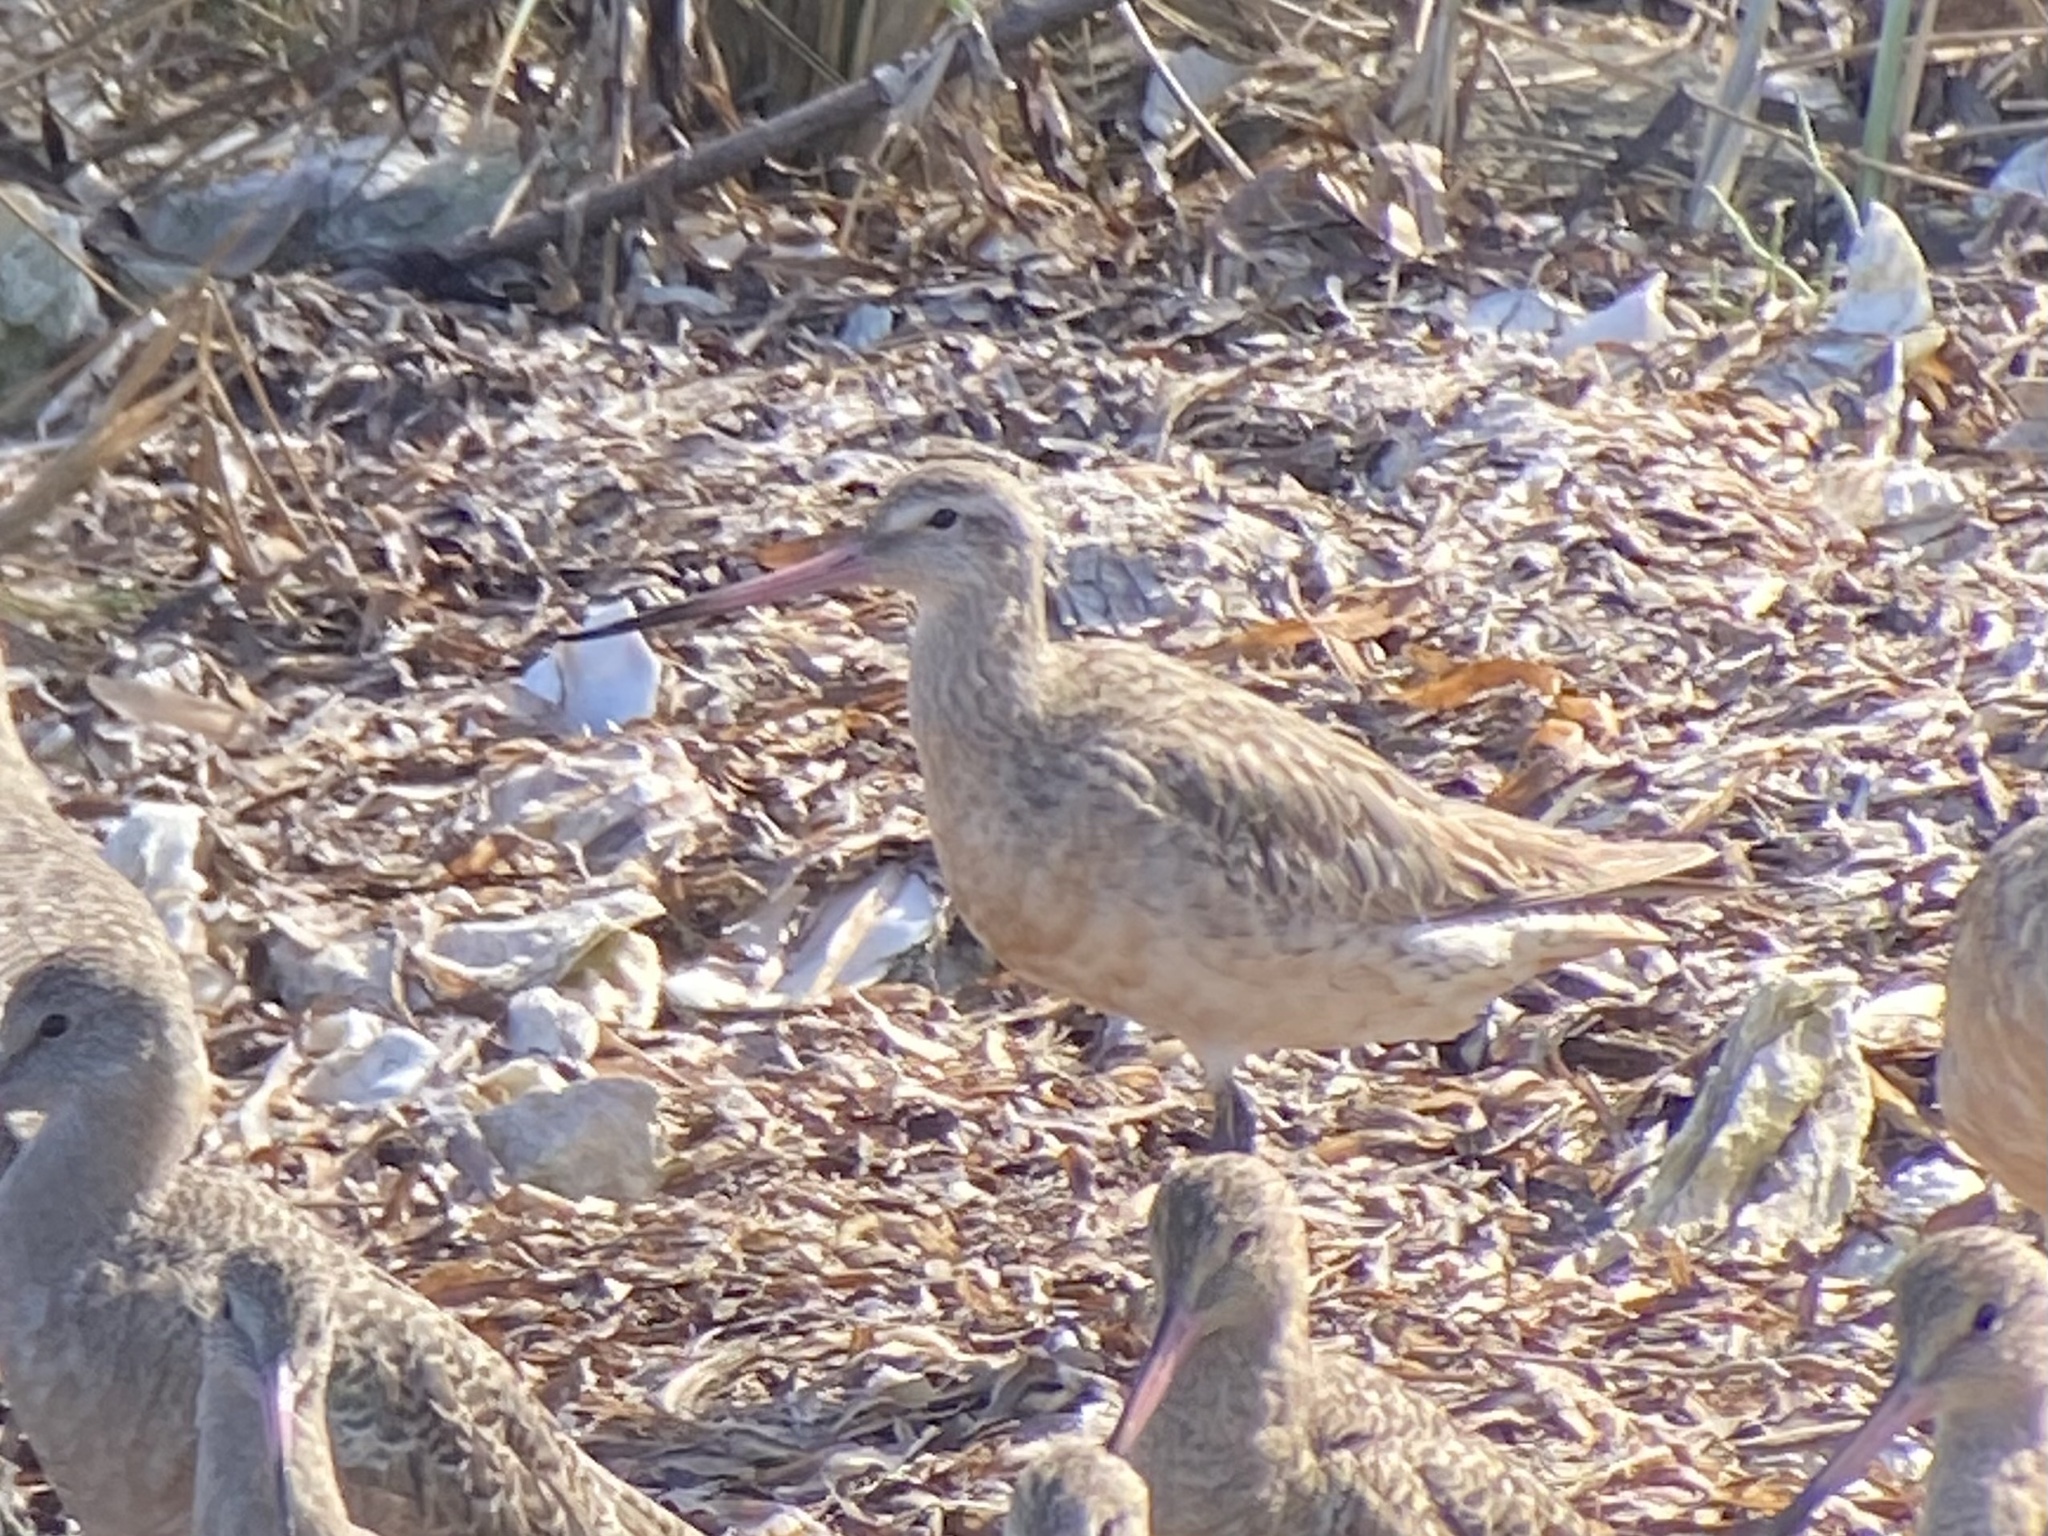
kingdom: Animalia
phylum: Chordata
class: Aves
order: Charadriiformes
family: Scolopacidae
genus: Limosa
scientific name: Limosa lapponica
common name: Bar-tailed godwit
